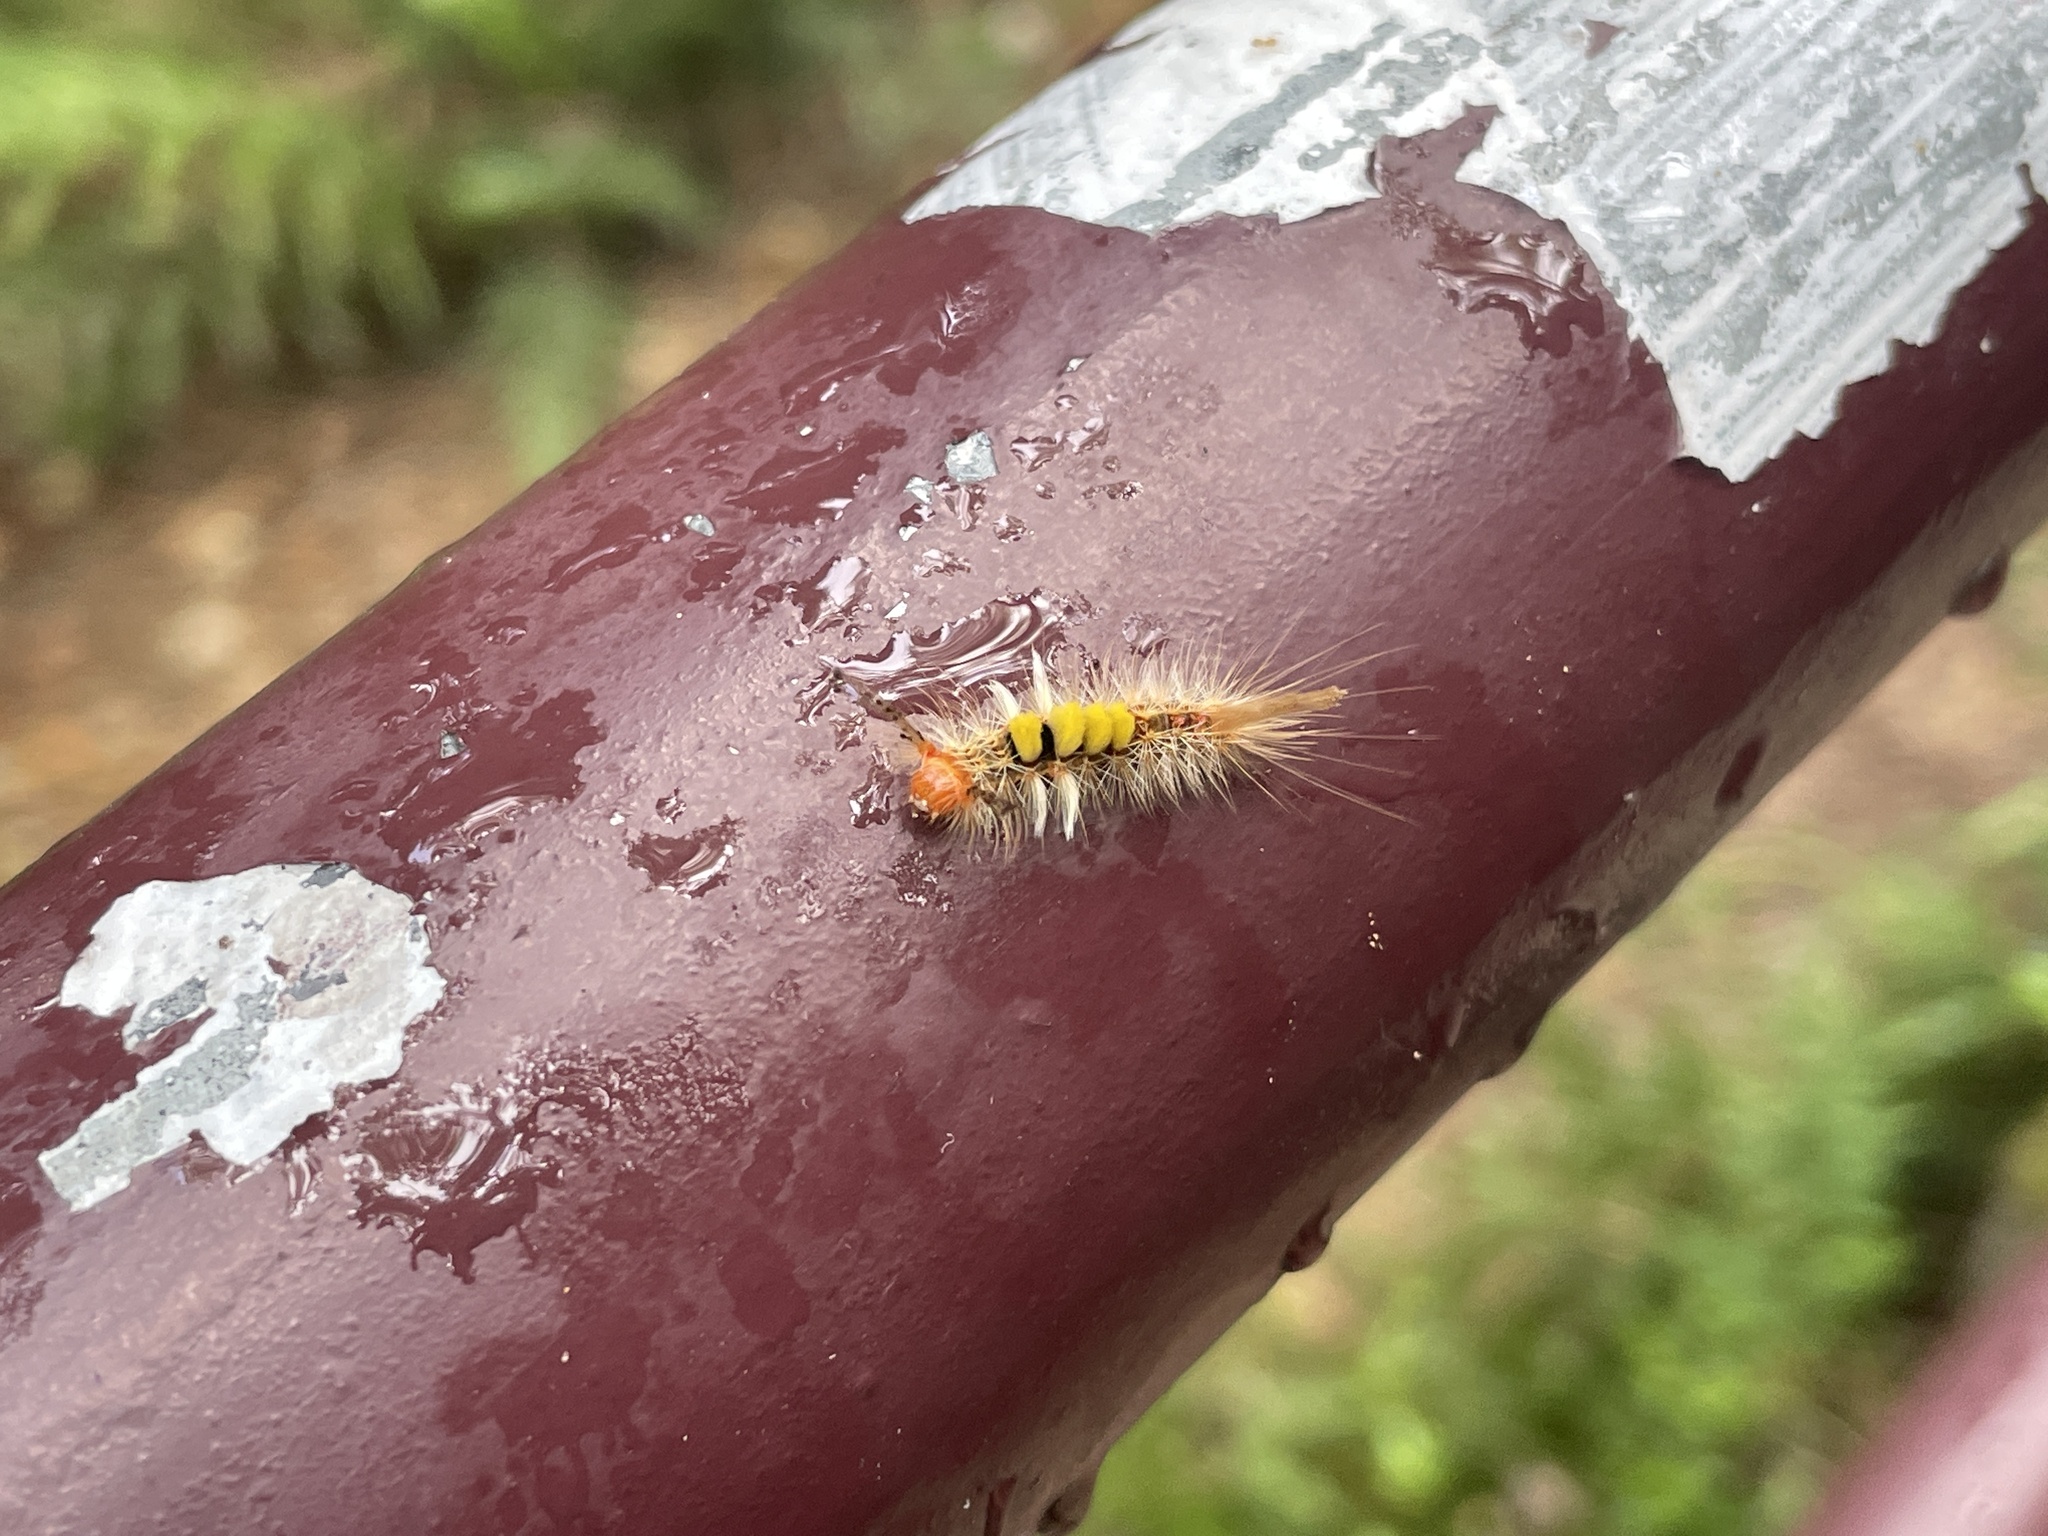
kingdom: Animalia
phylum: Arthropoda
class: Insecta
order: Lepidoptera
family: Erebidae
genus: Orgyia
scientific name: Orgyia postica
